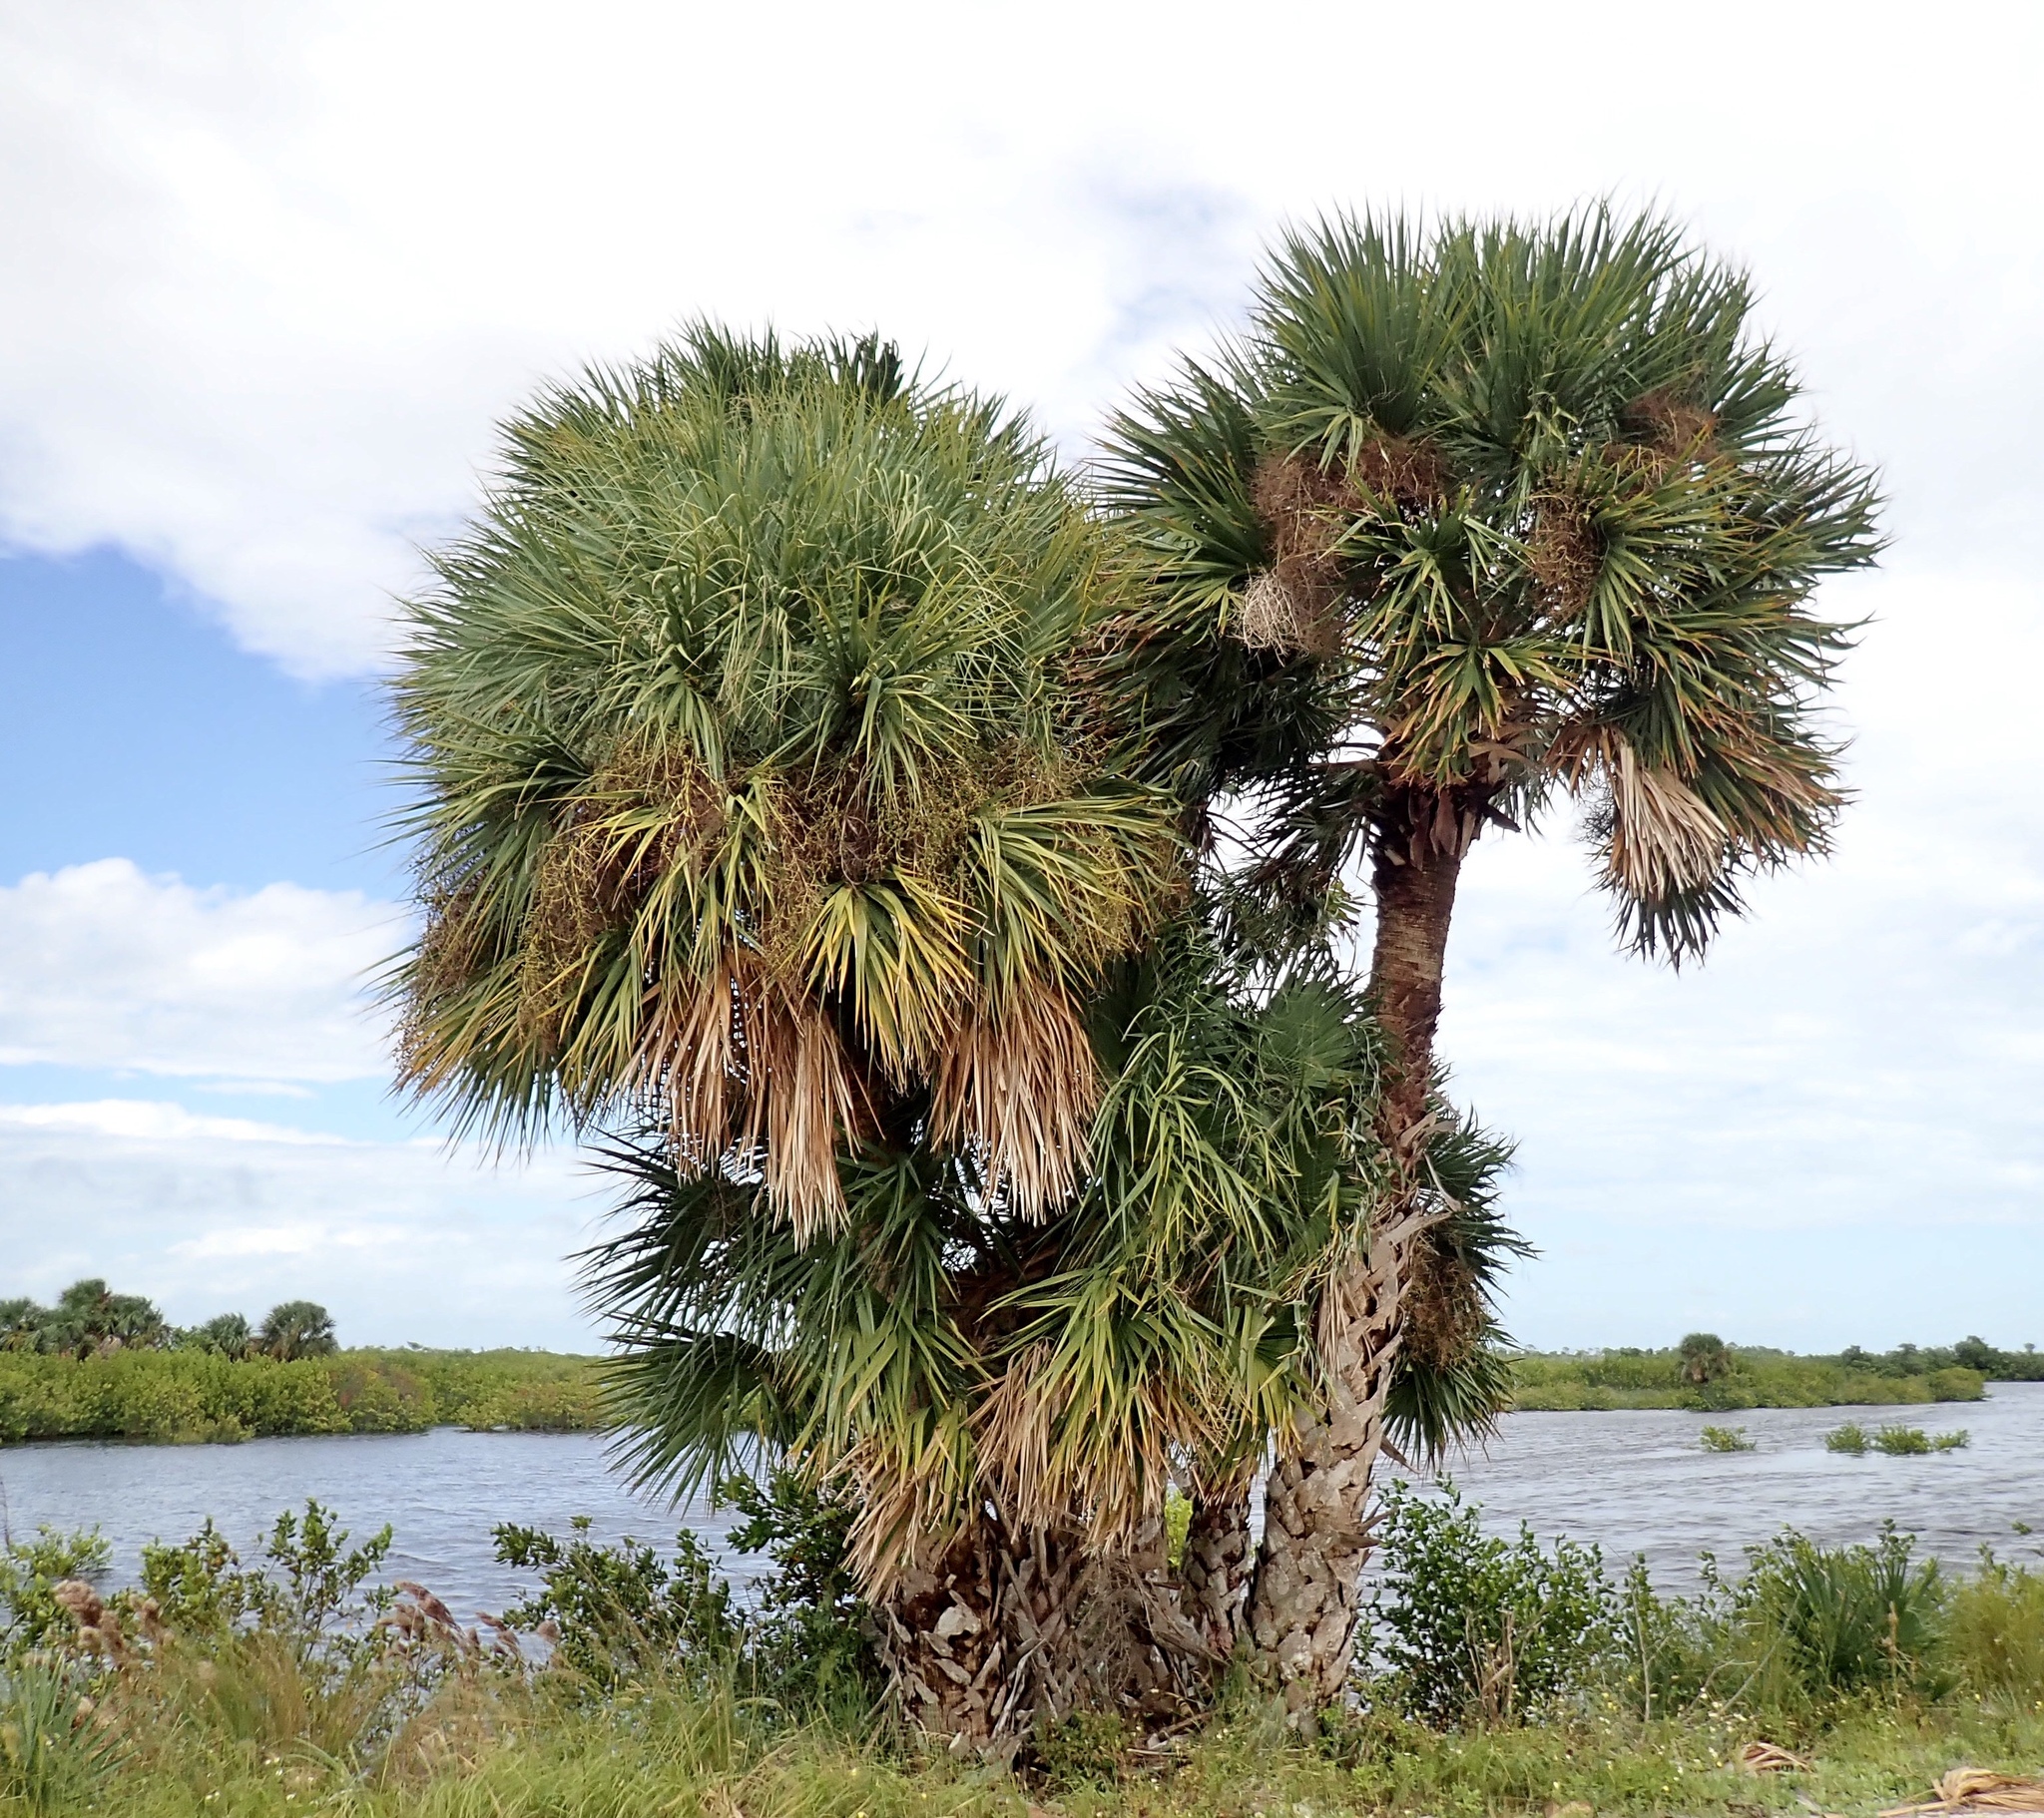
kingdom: Plantae
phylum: Tracheophyta
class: Liliopsida
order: Arecales
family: Arecaceae
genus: Sabal
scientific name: Sabal palmetto
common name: Blue palmetto
